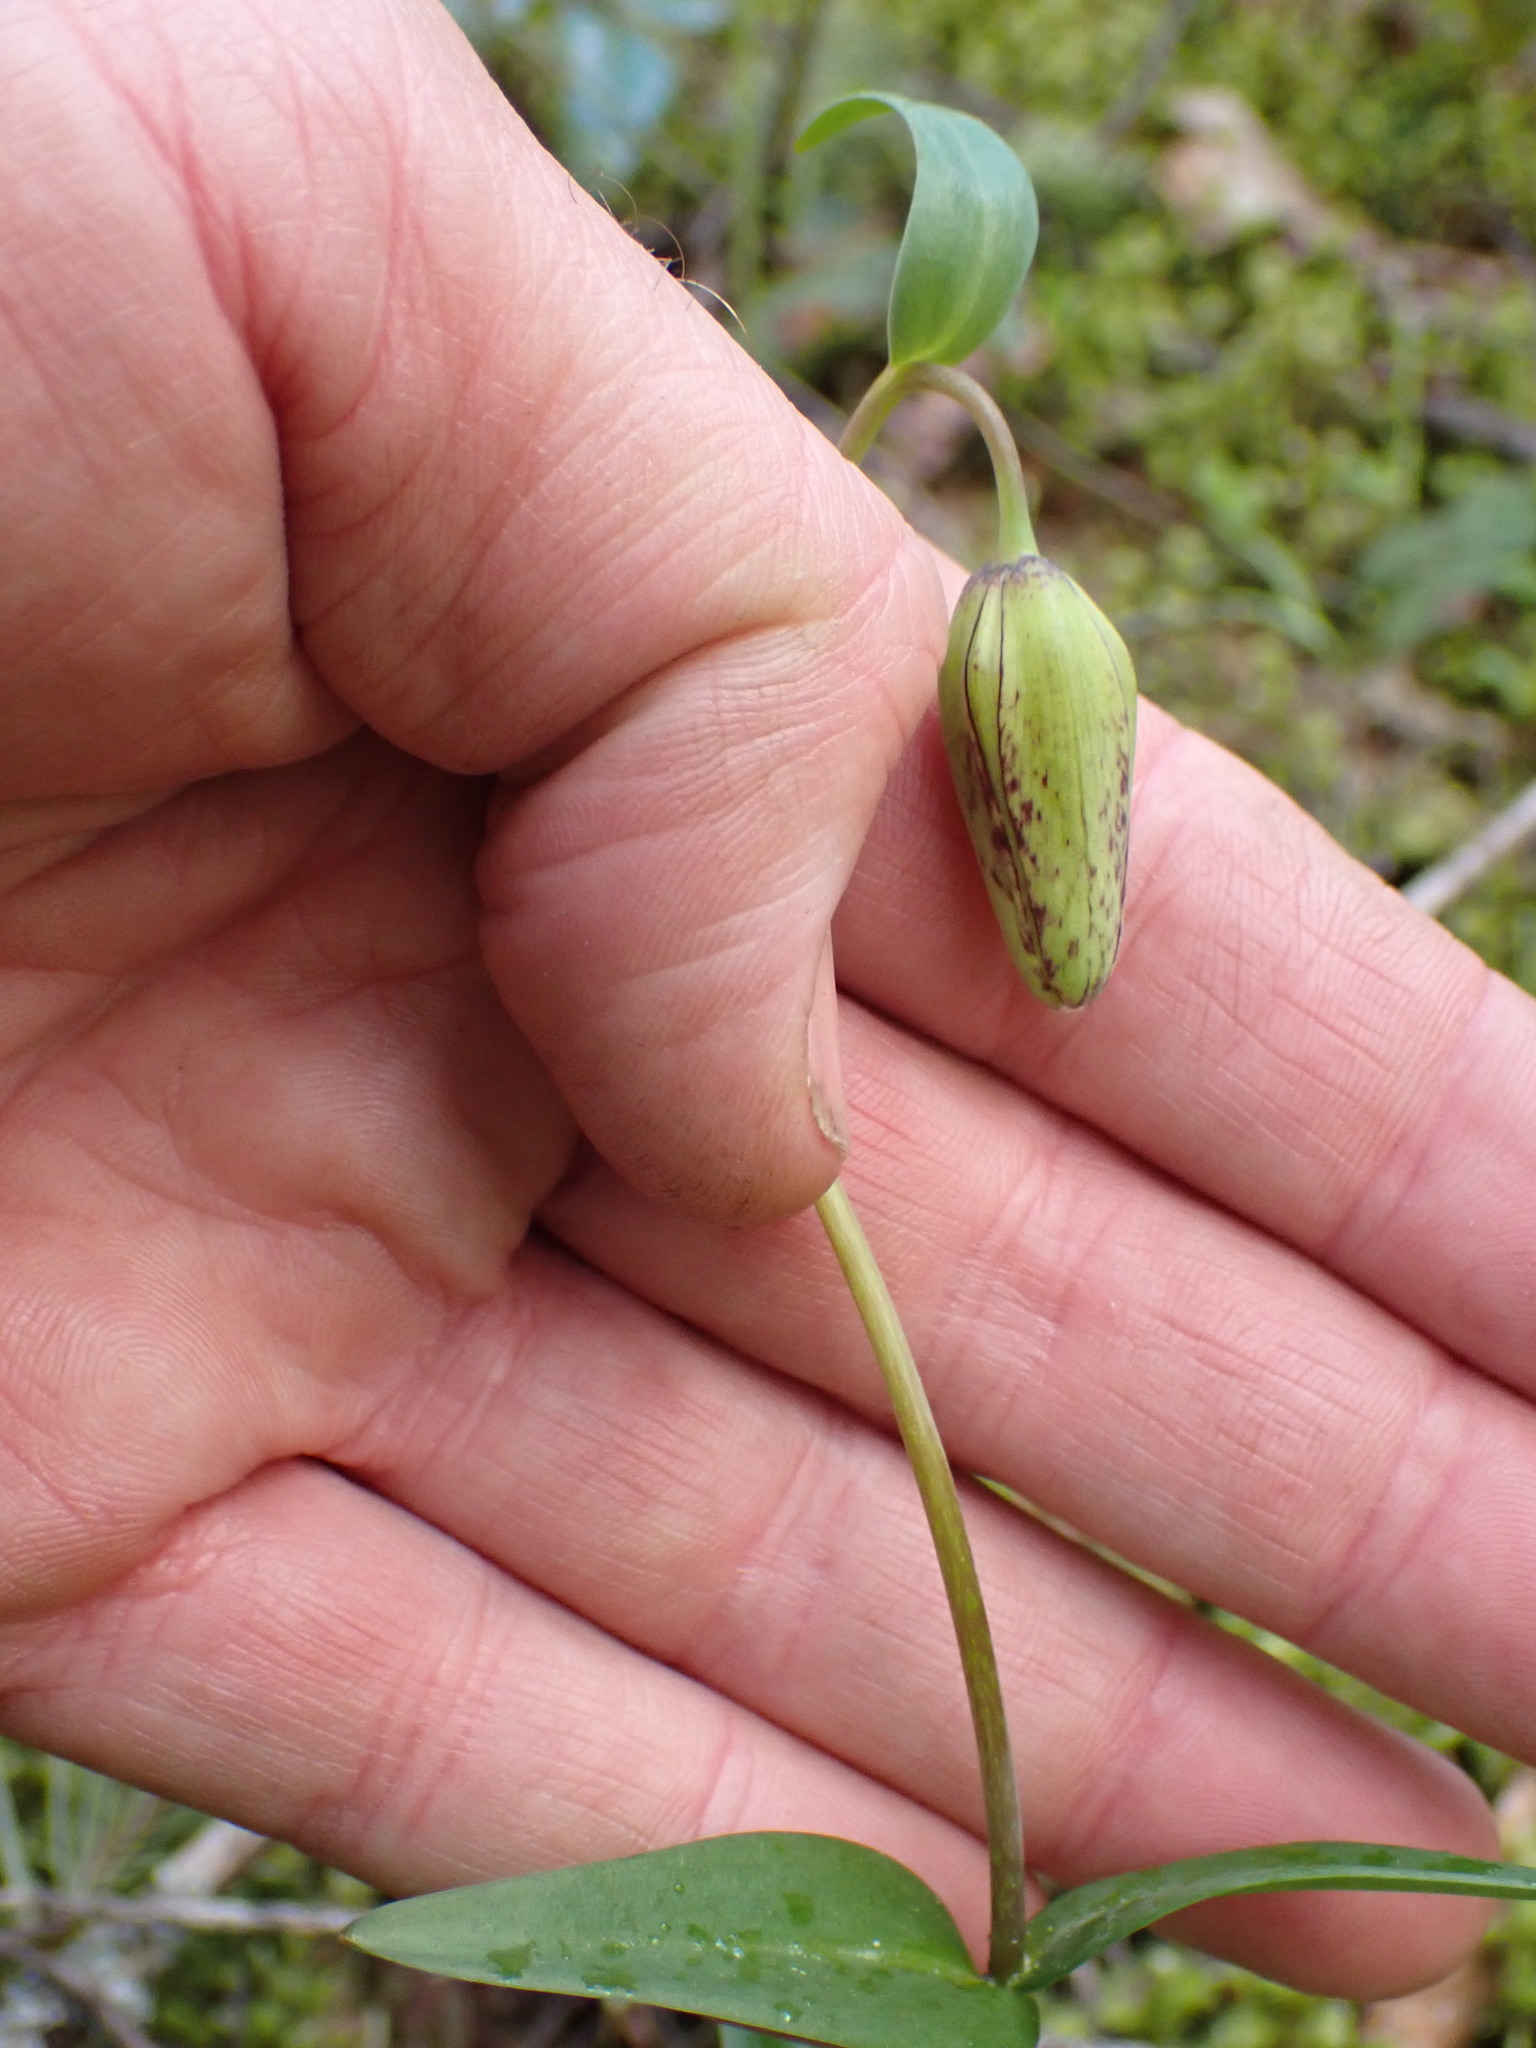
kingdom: Plantae
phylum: Tracheophyta
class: Liliopsida
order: Liliales
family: Liliaceae
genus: Fritillaria
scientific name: Fritillaria affinis
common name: Ojai fritillary
